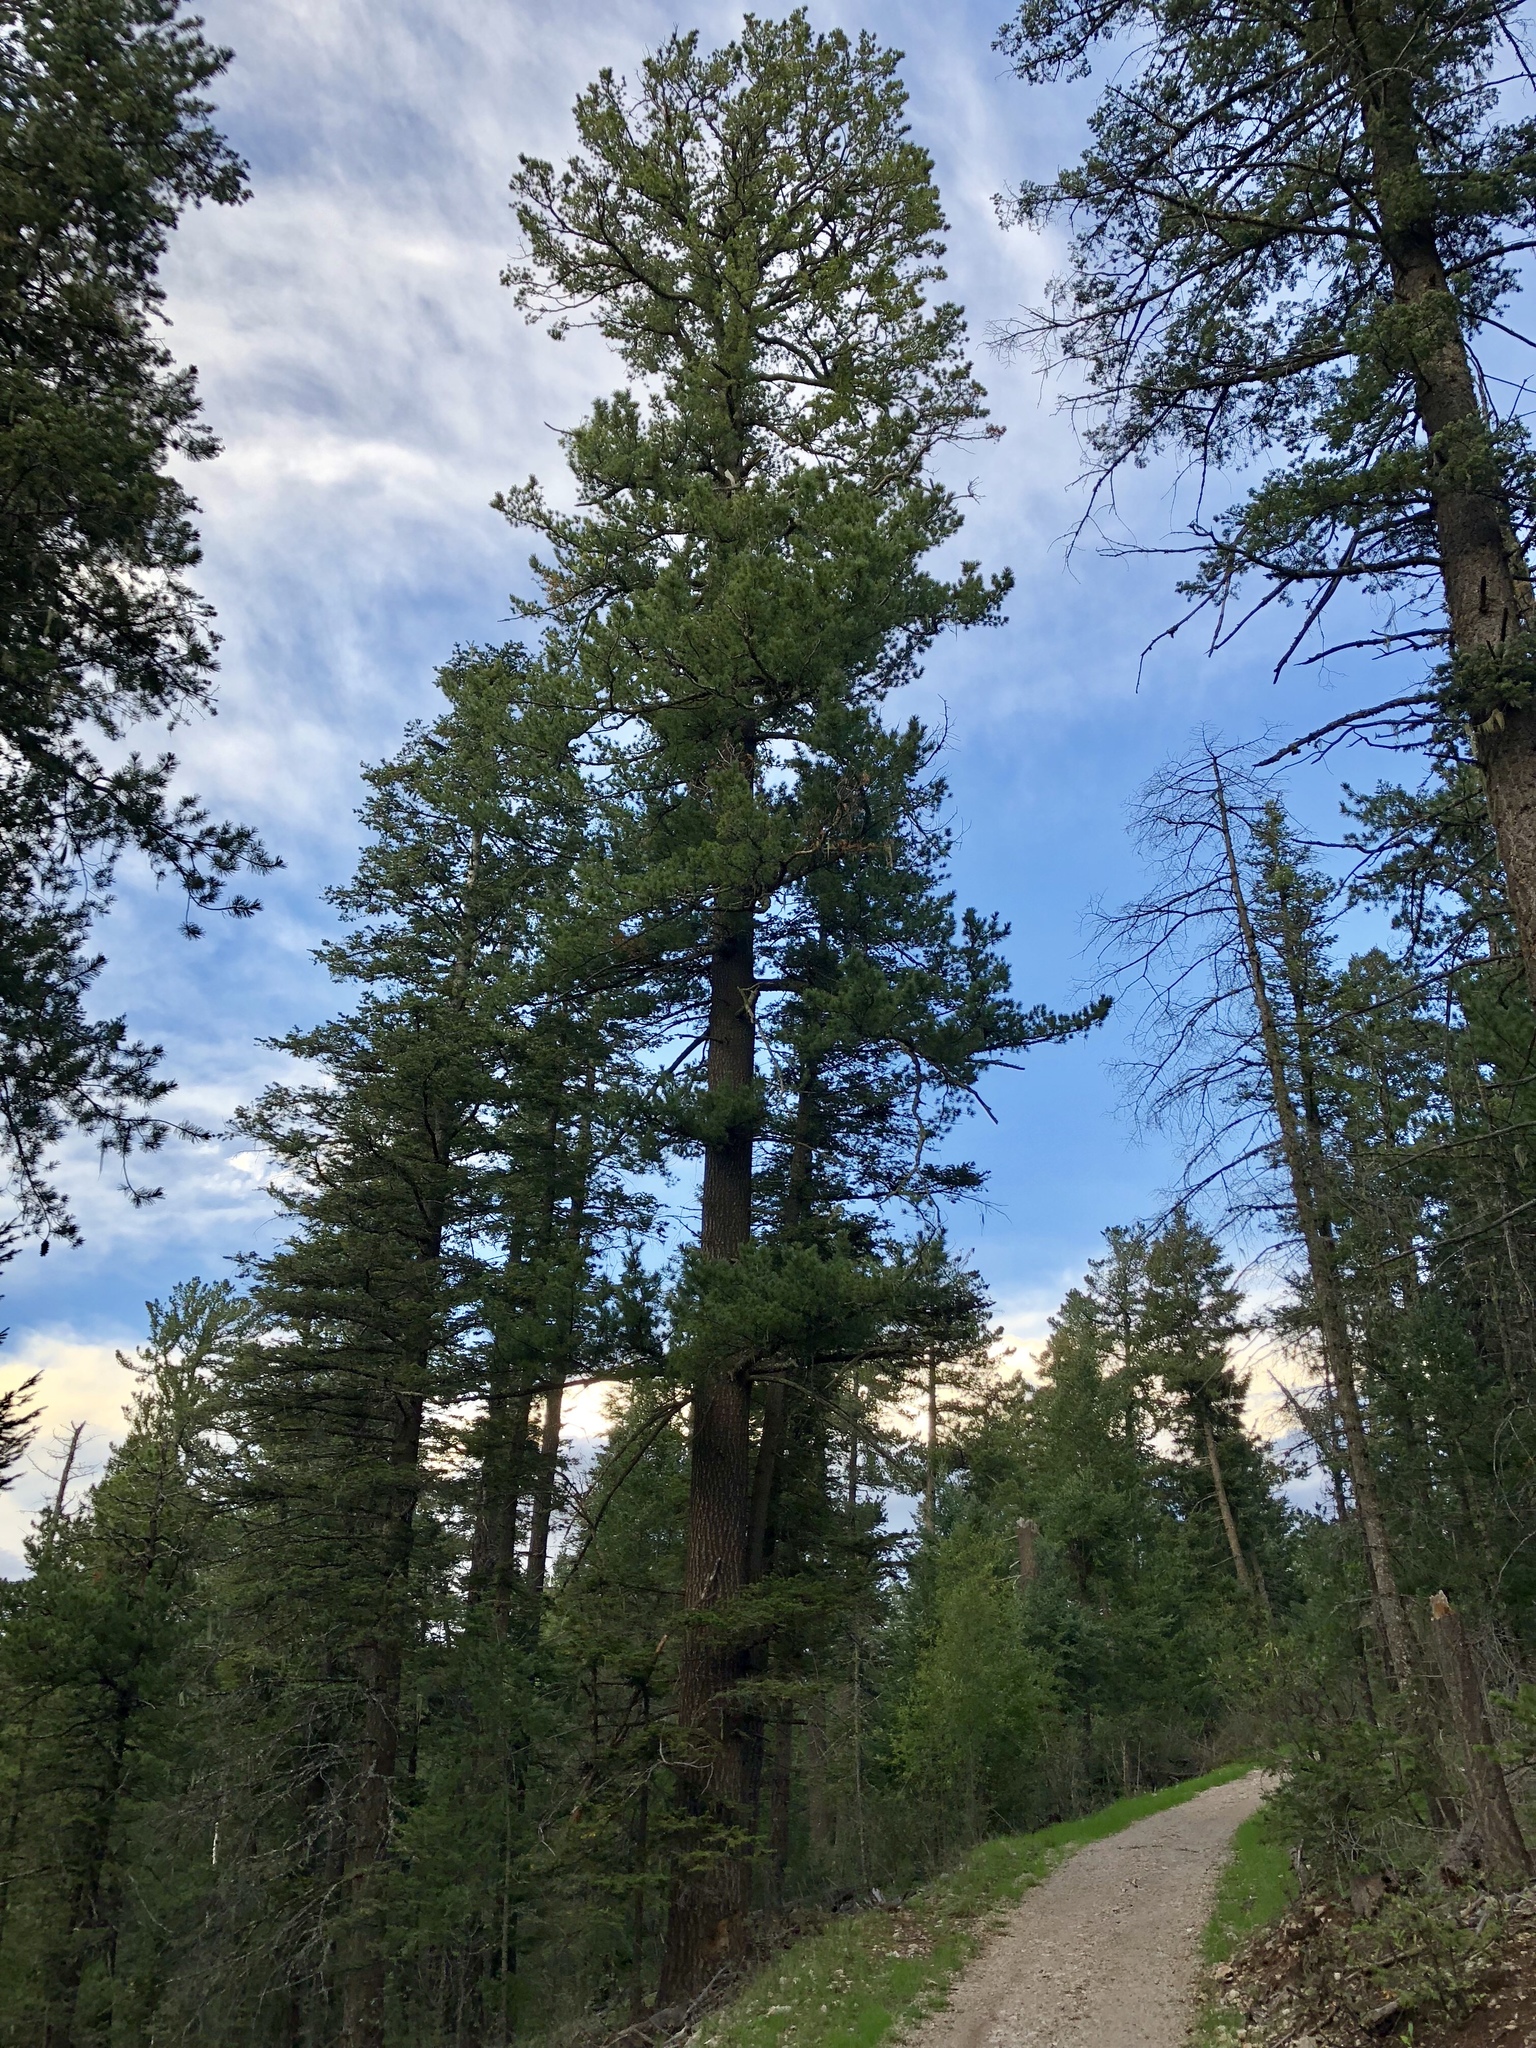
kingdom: Plantae
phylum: Tracheophyta
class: Pinopsida
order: Pinales
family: Pinaceae
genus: Pseudotsuga
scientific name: Pseudotsuga menziesii
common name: Douglas fir
